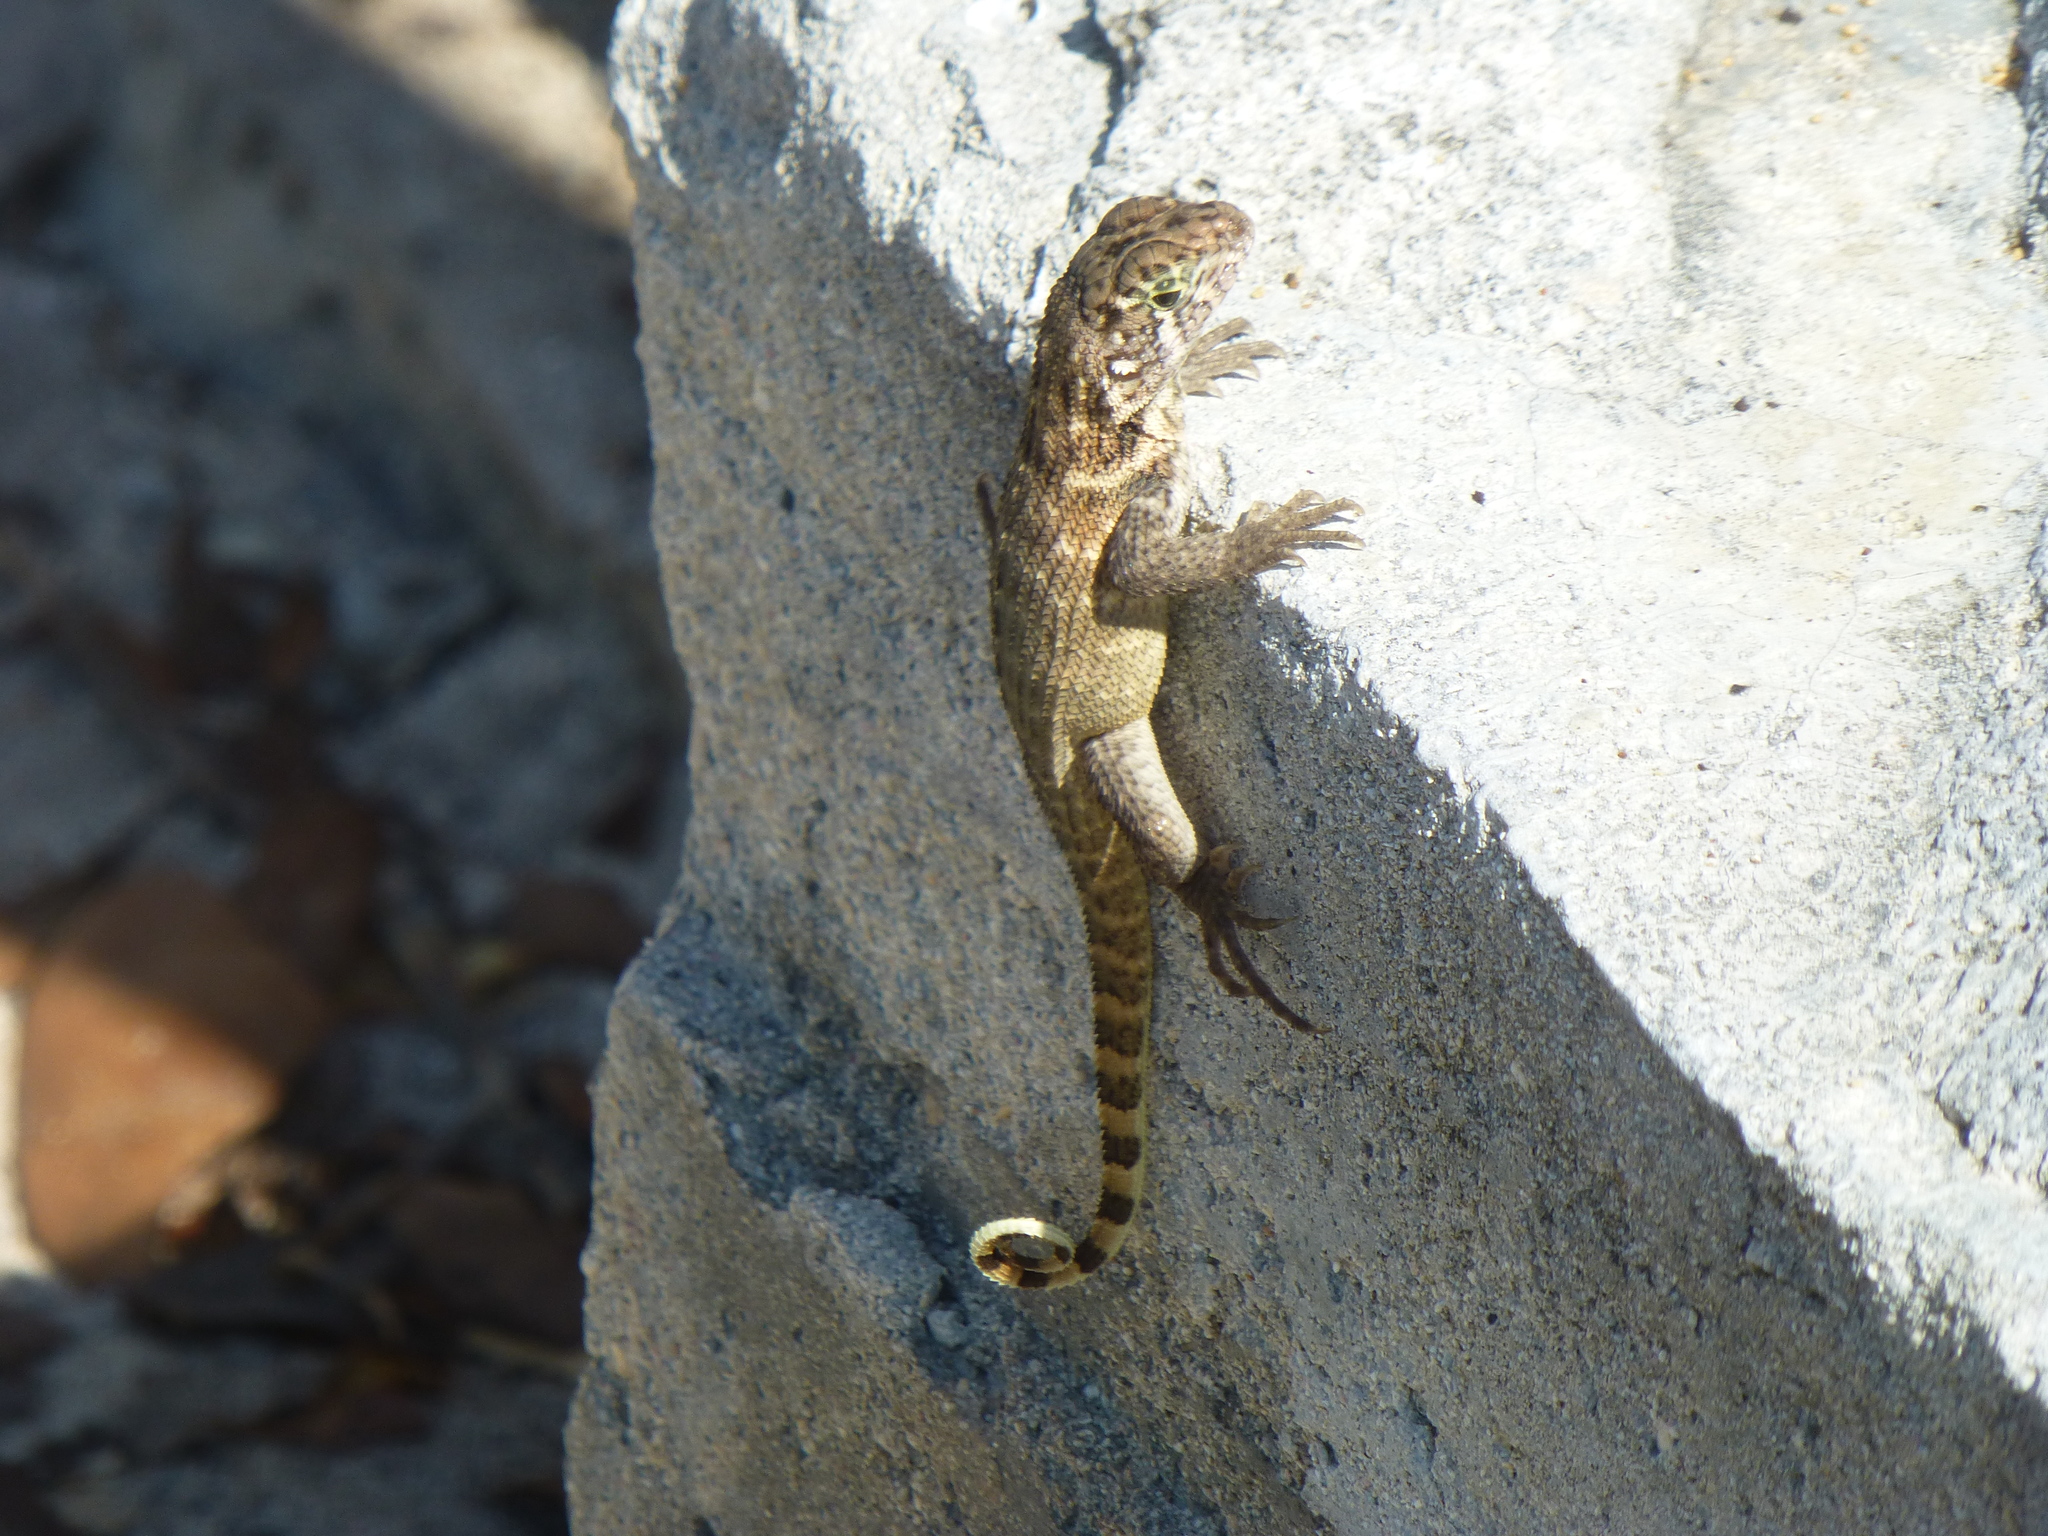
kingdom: Animalia
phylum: Chordata
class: Squamata
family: Leiocephalidae
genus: Leiocephalus
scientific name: Leiocephalus carinatus
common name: Northern curly-tailed lizard
